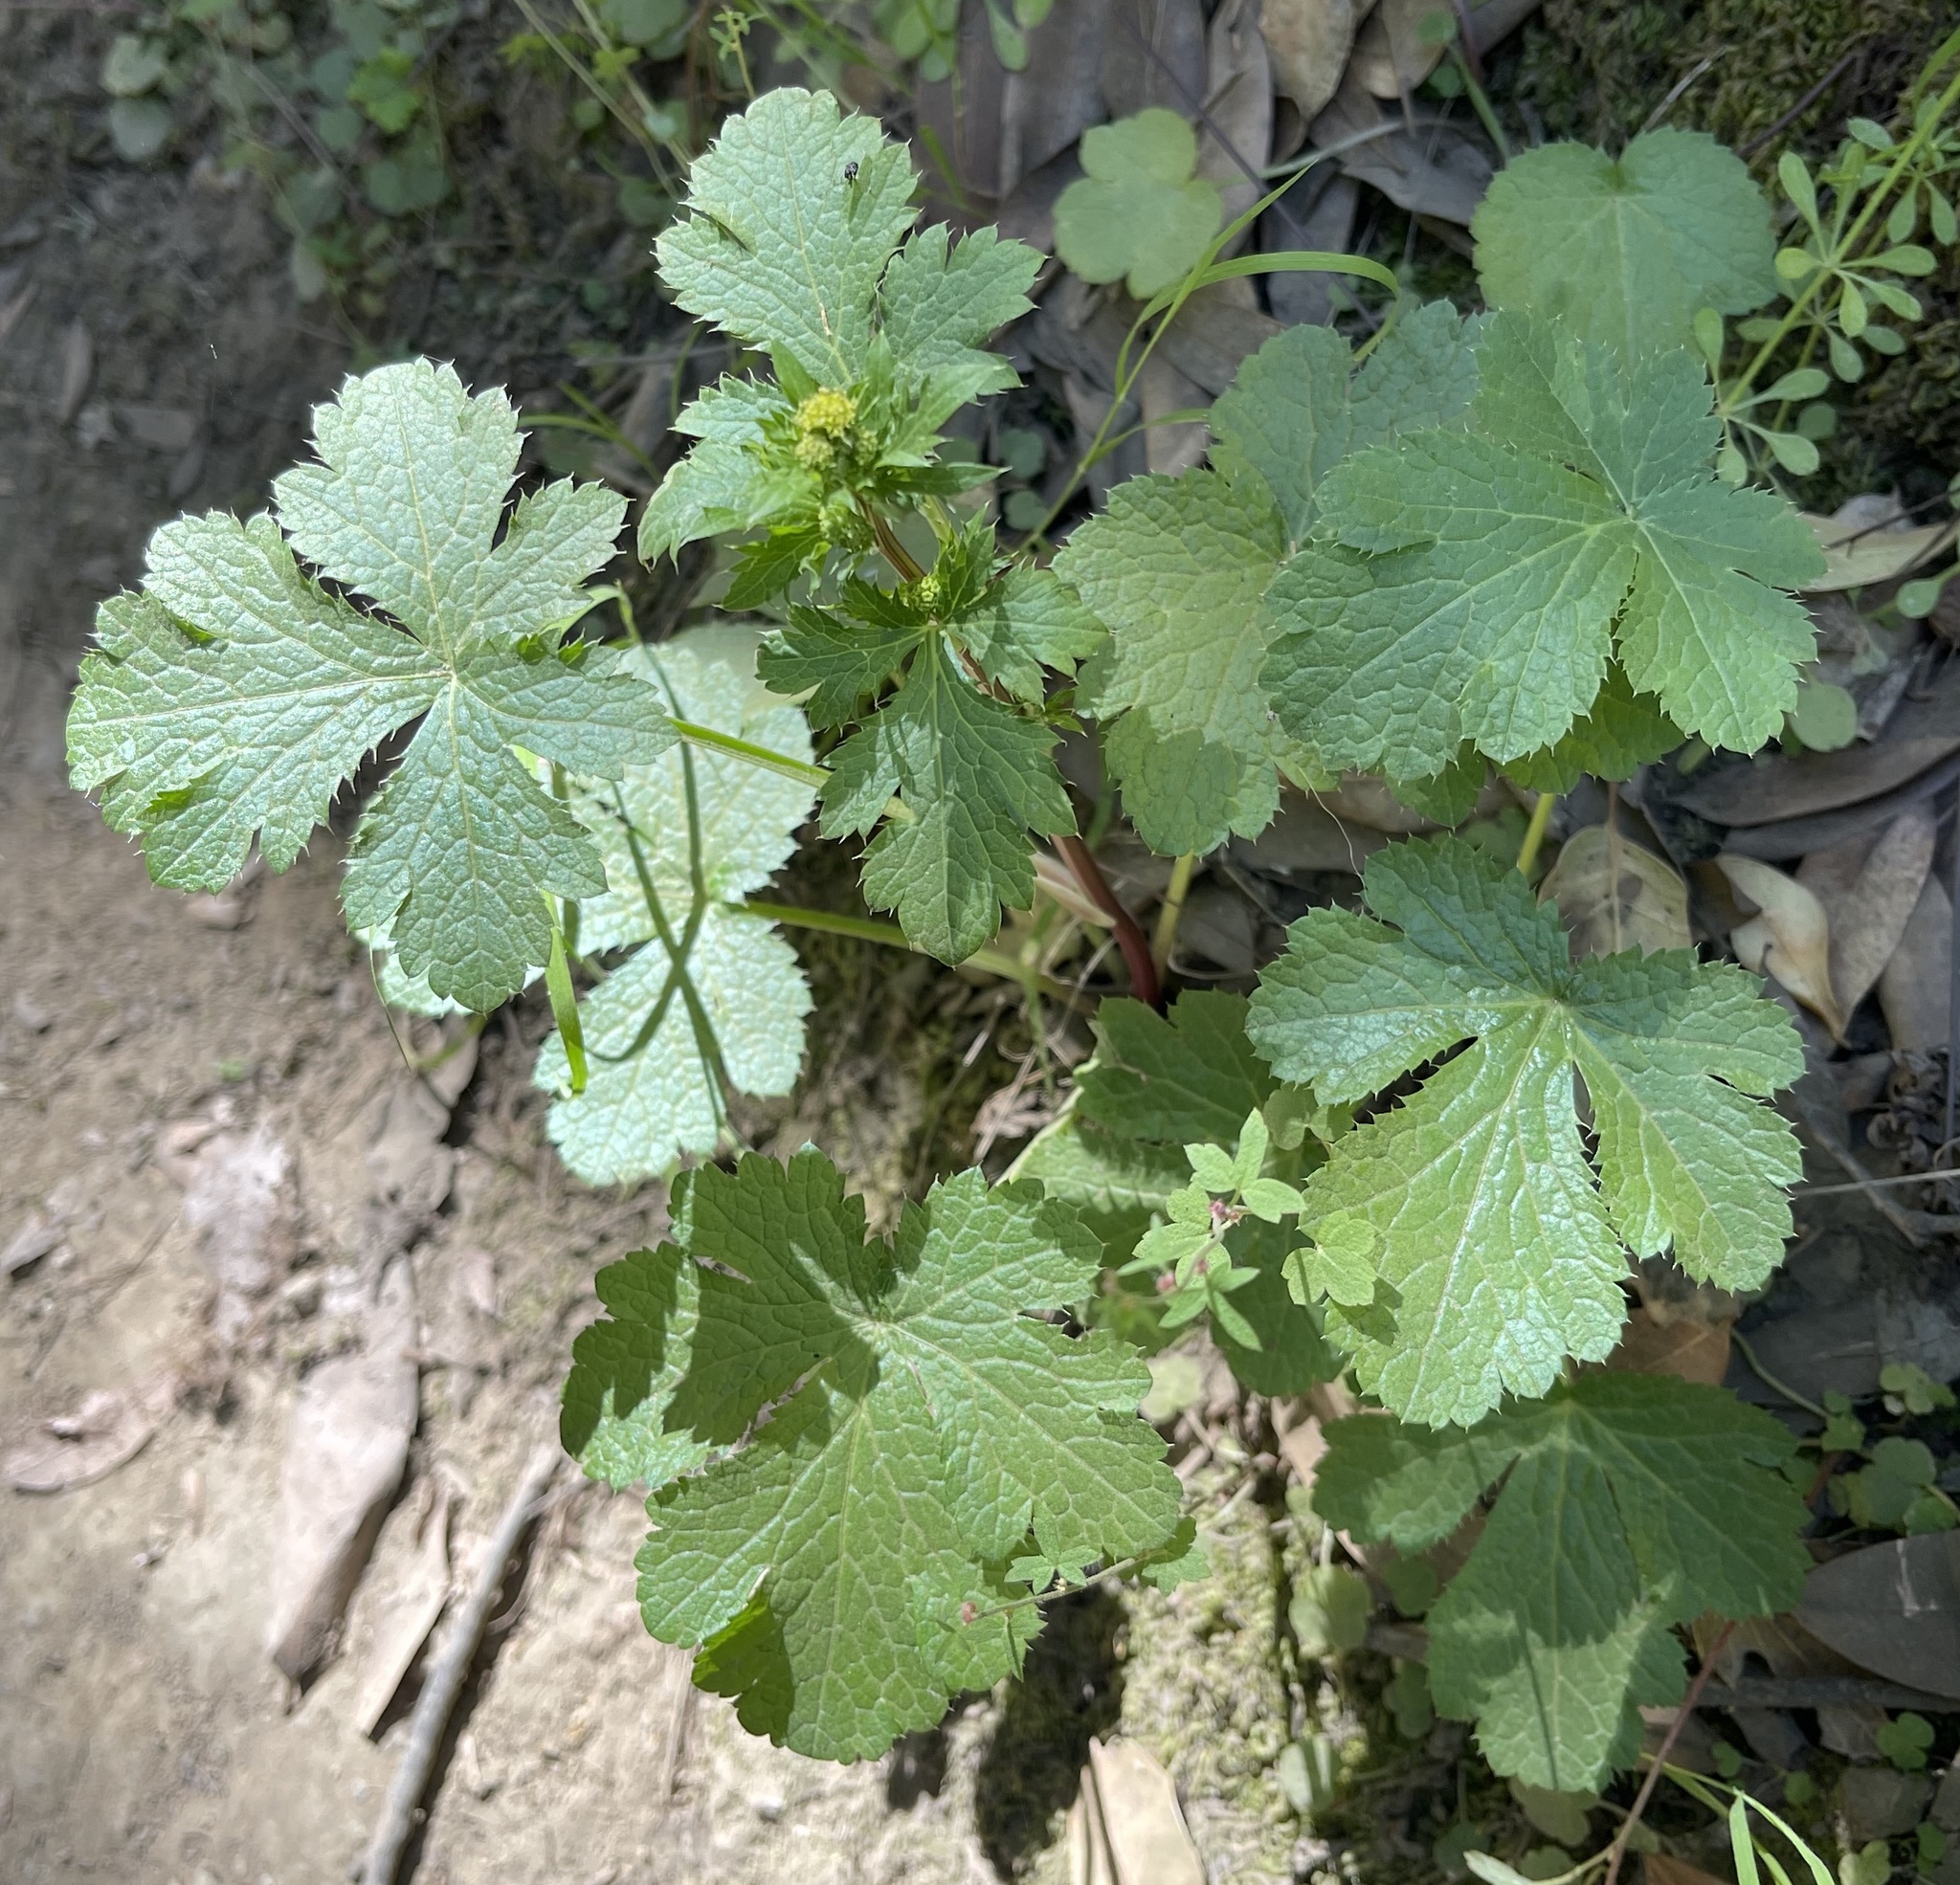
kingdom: Plantae
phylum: Tracheophyta
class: Magnoliopsida
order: Apiales
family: Apiaceae
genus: Sanicula
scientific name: Sanicula crassicaulis
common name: Western snakeroot
